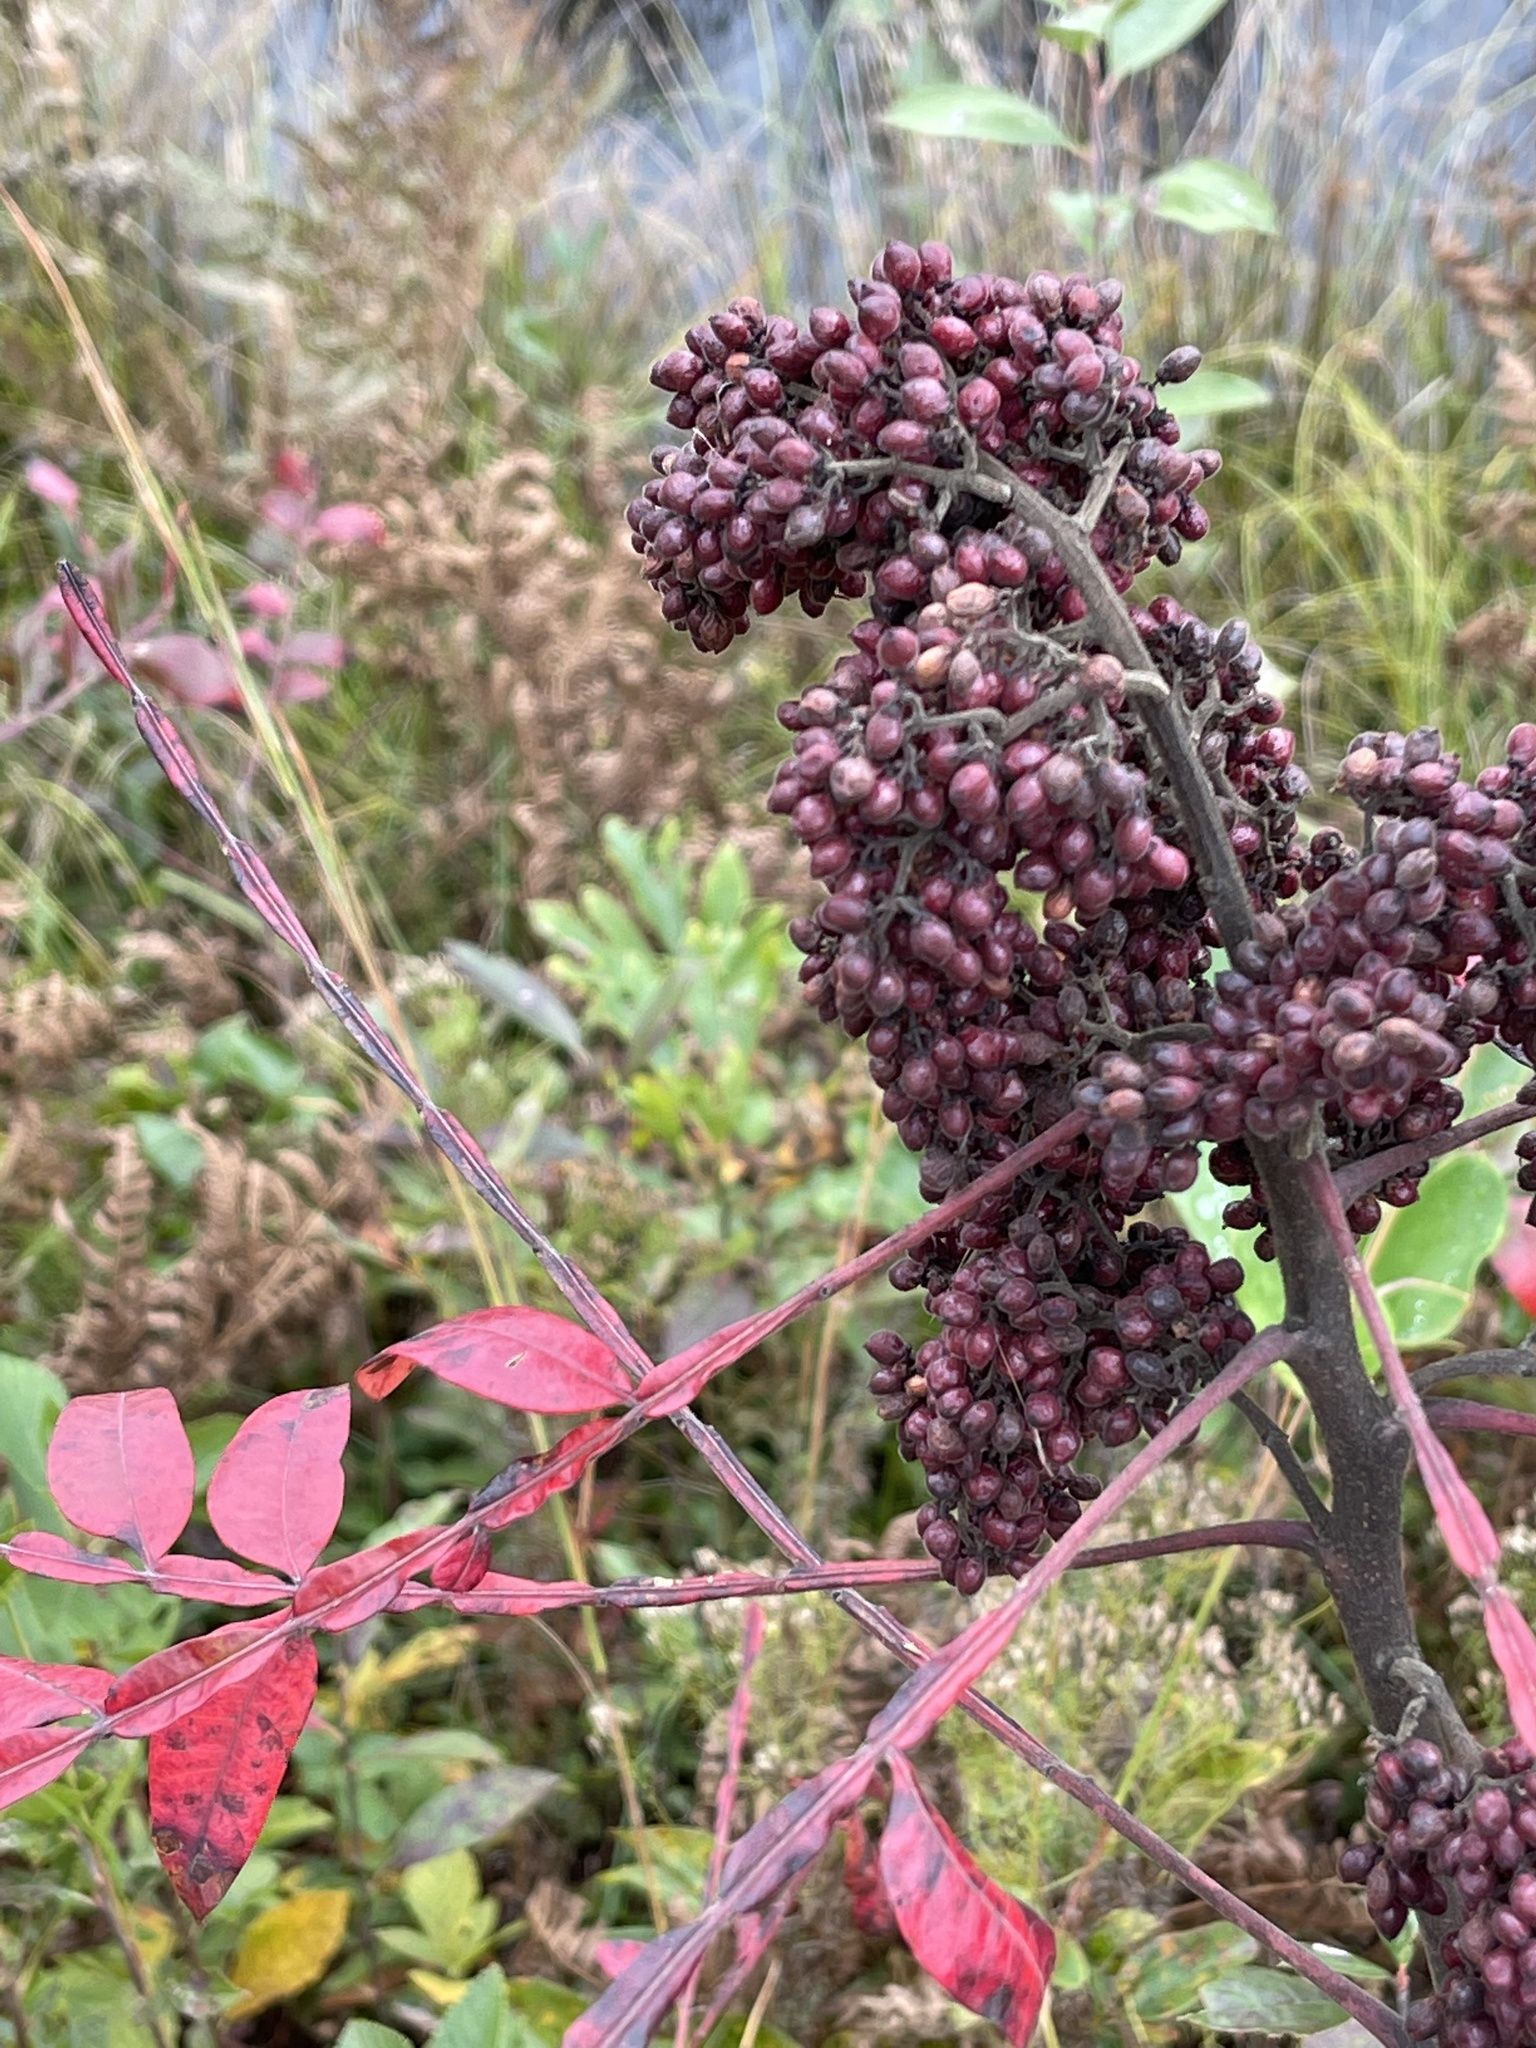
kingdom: Plantae
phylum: Tracheophyta
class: Magnoliopsida
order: Sapindales
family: Anacardiaceae
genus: Rhus
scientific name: Rhus copallina
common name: Shining sumac
